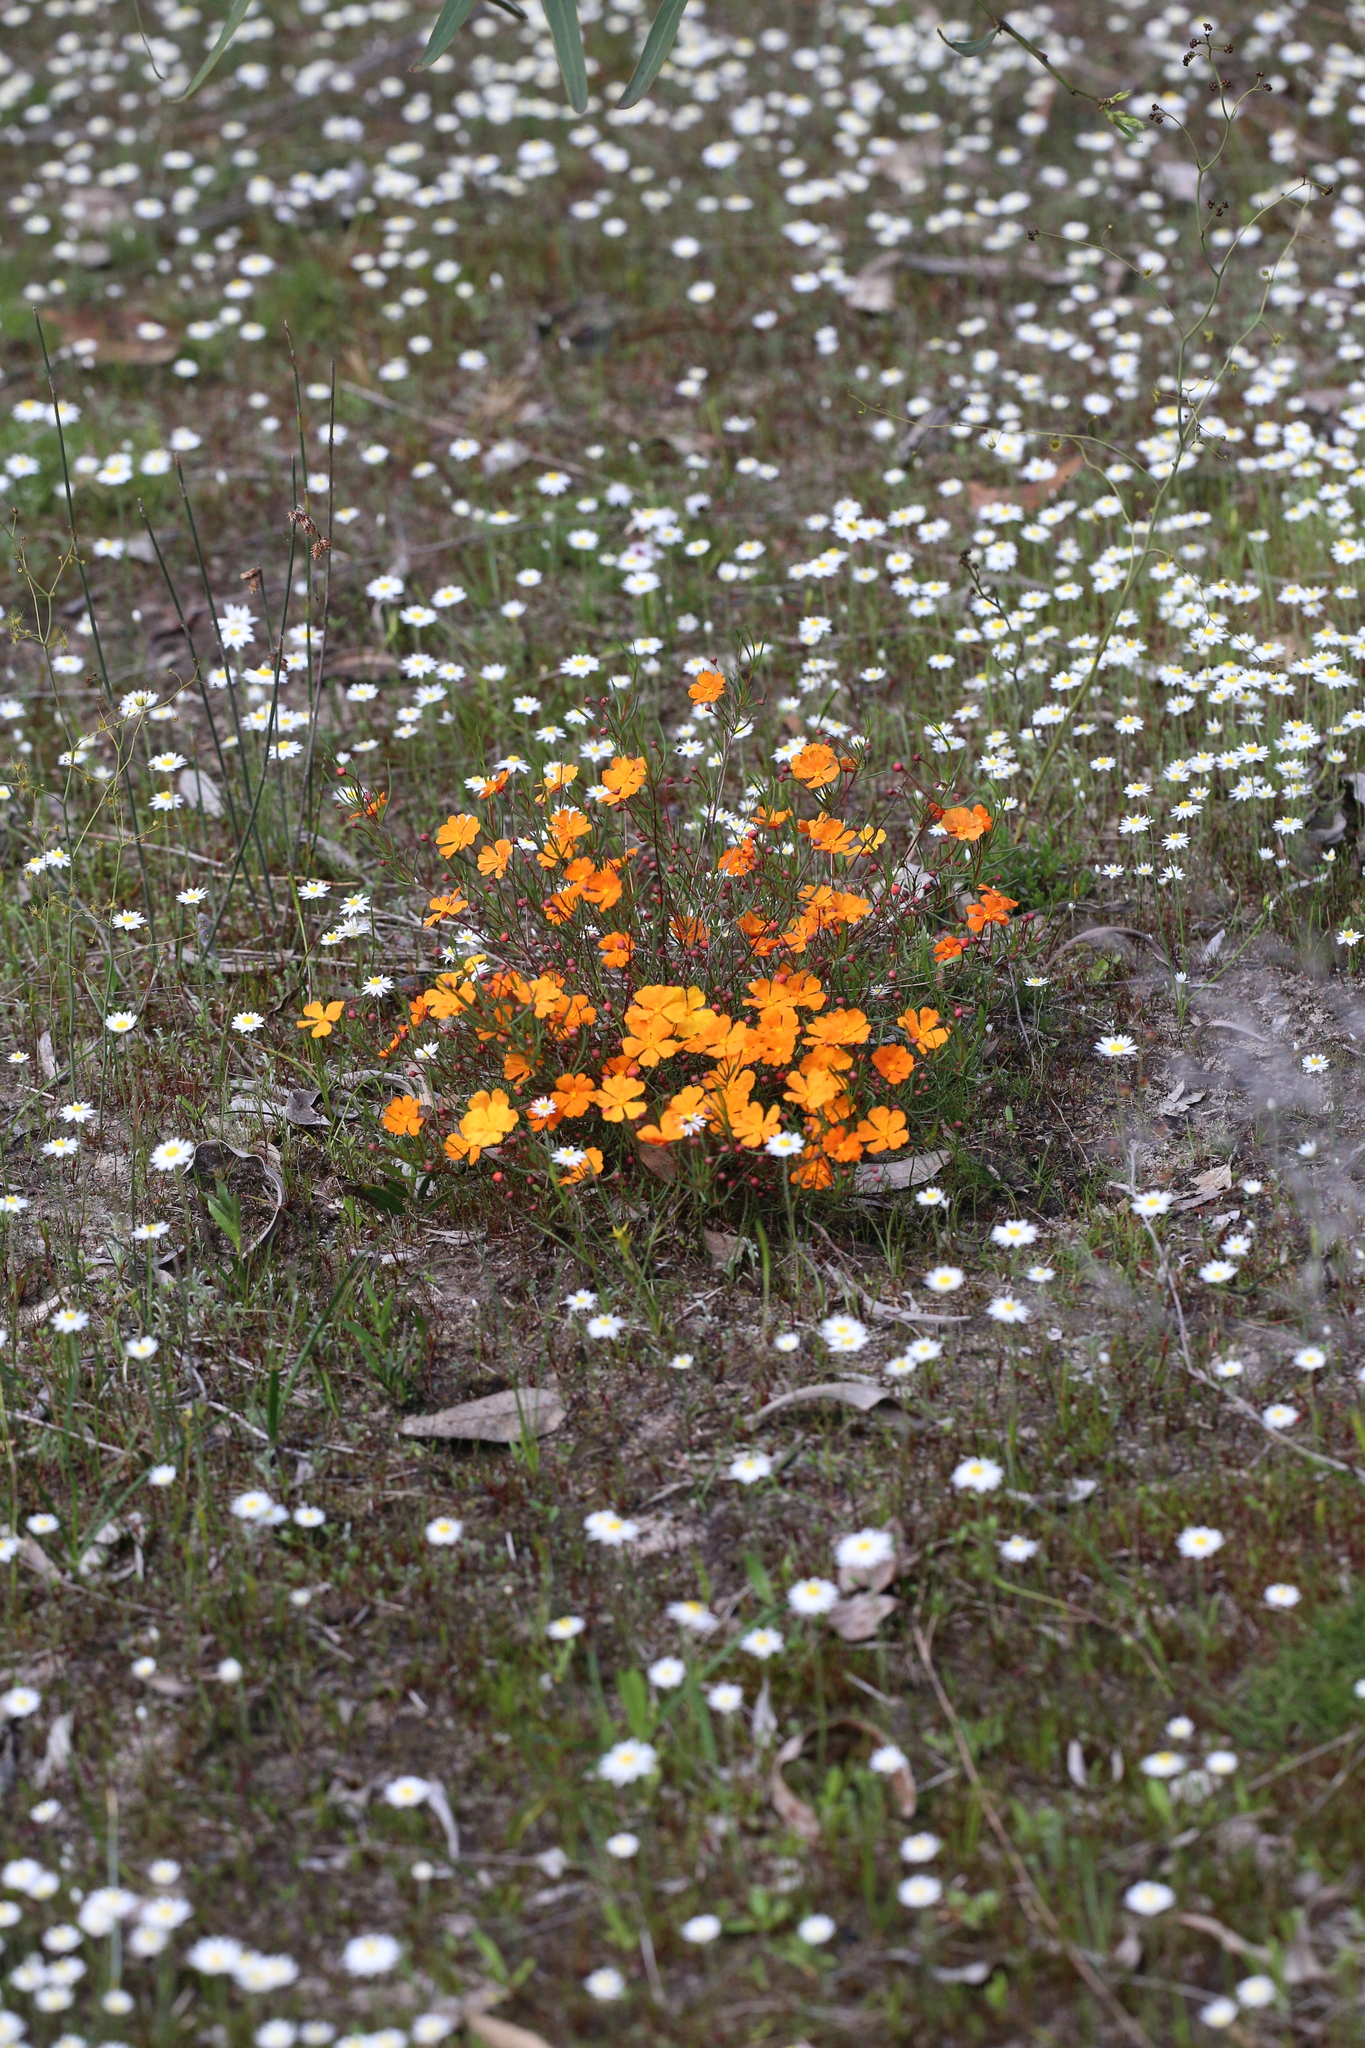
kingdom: Plantae
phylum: Tracheophyta
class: Magnoliopsida
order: Dilleniales
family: Dilleniaceae
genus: Hibbertia
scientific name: Hibbertia stellaris
